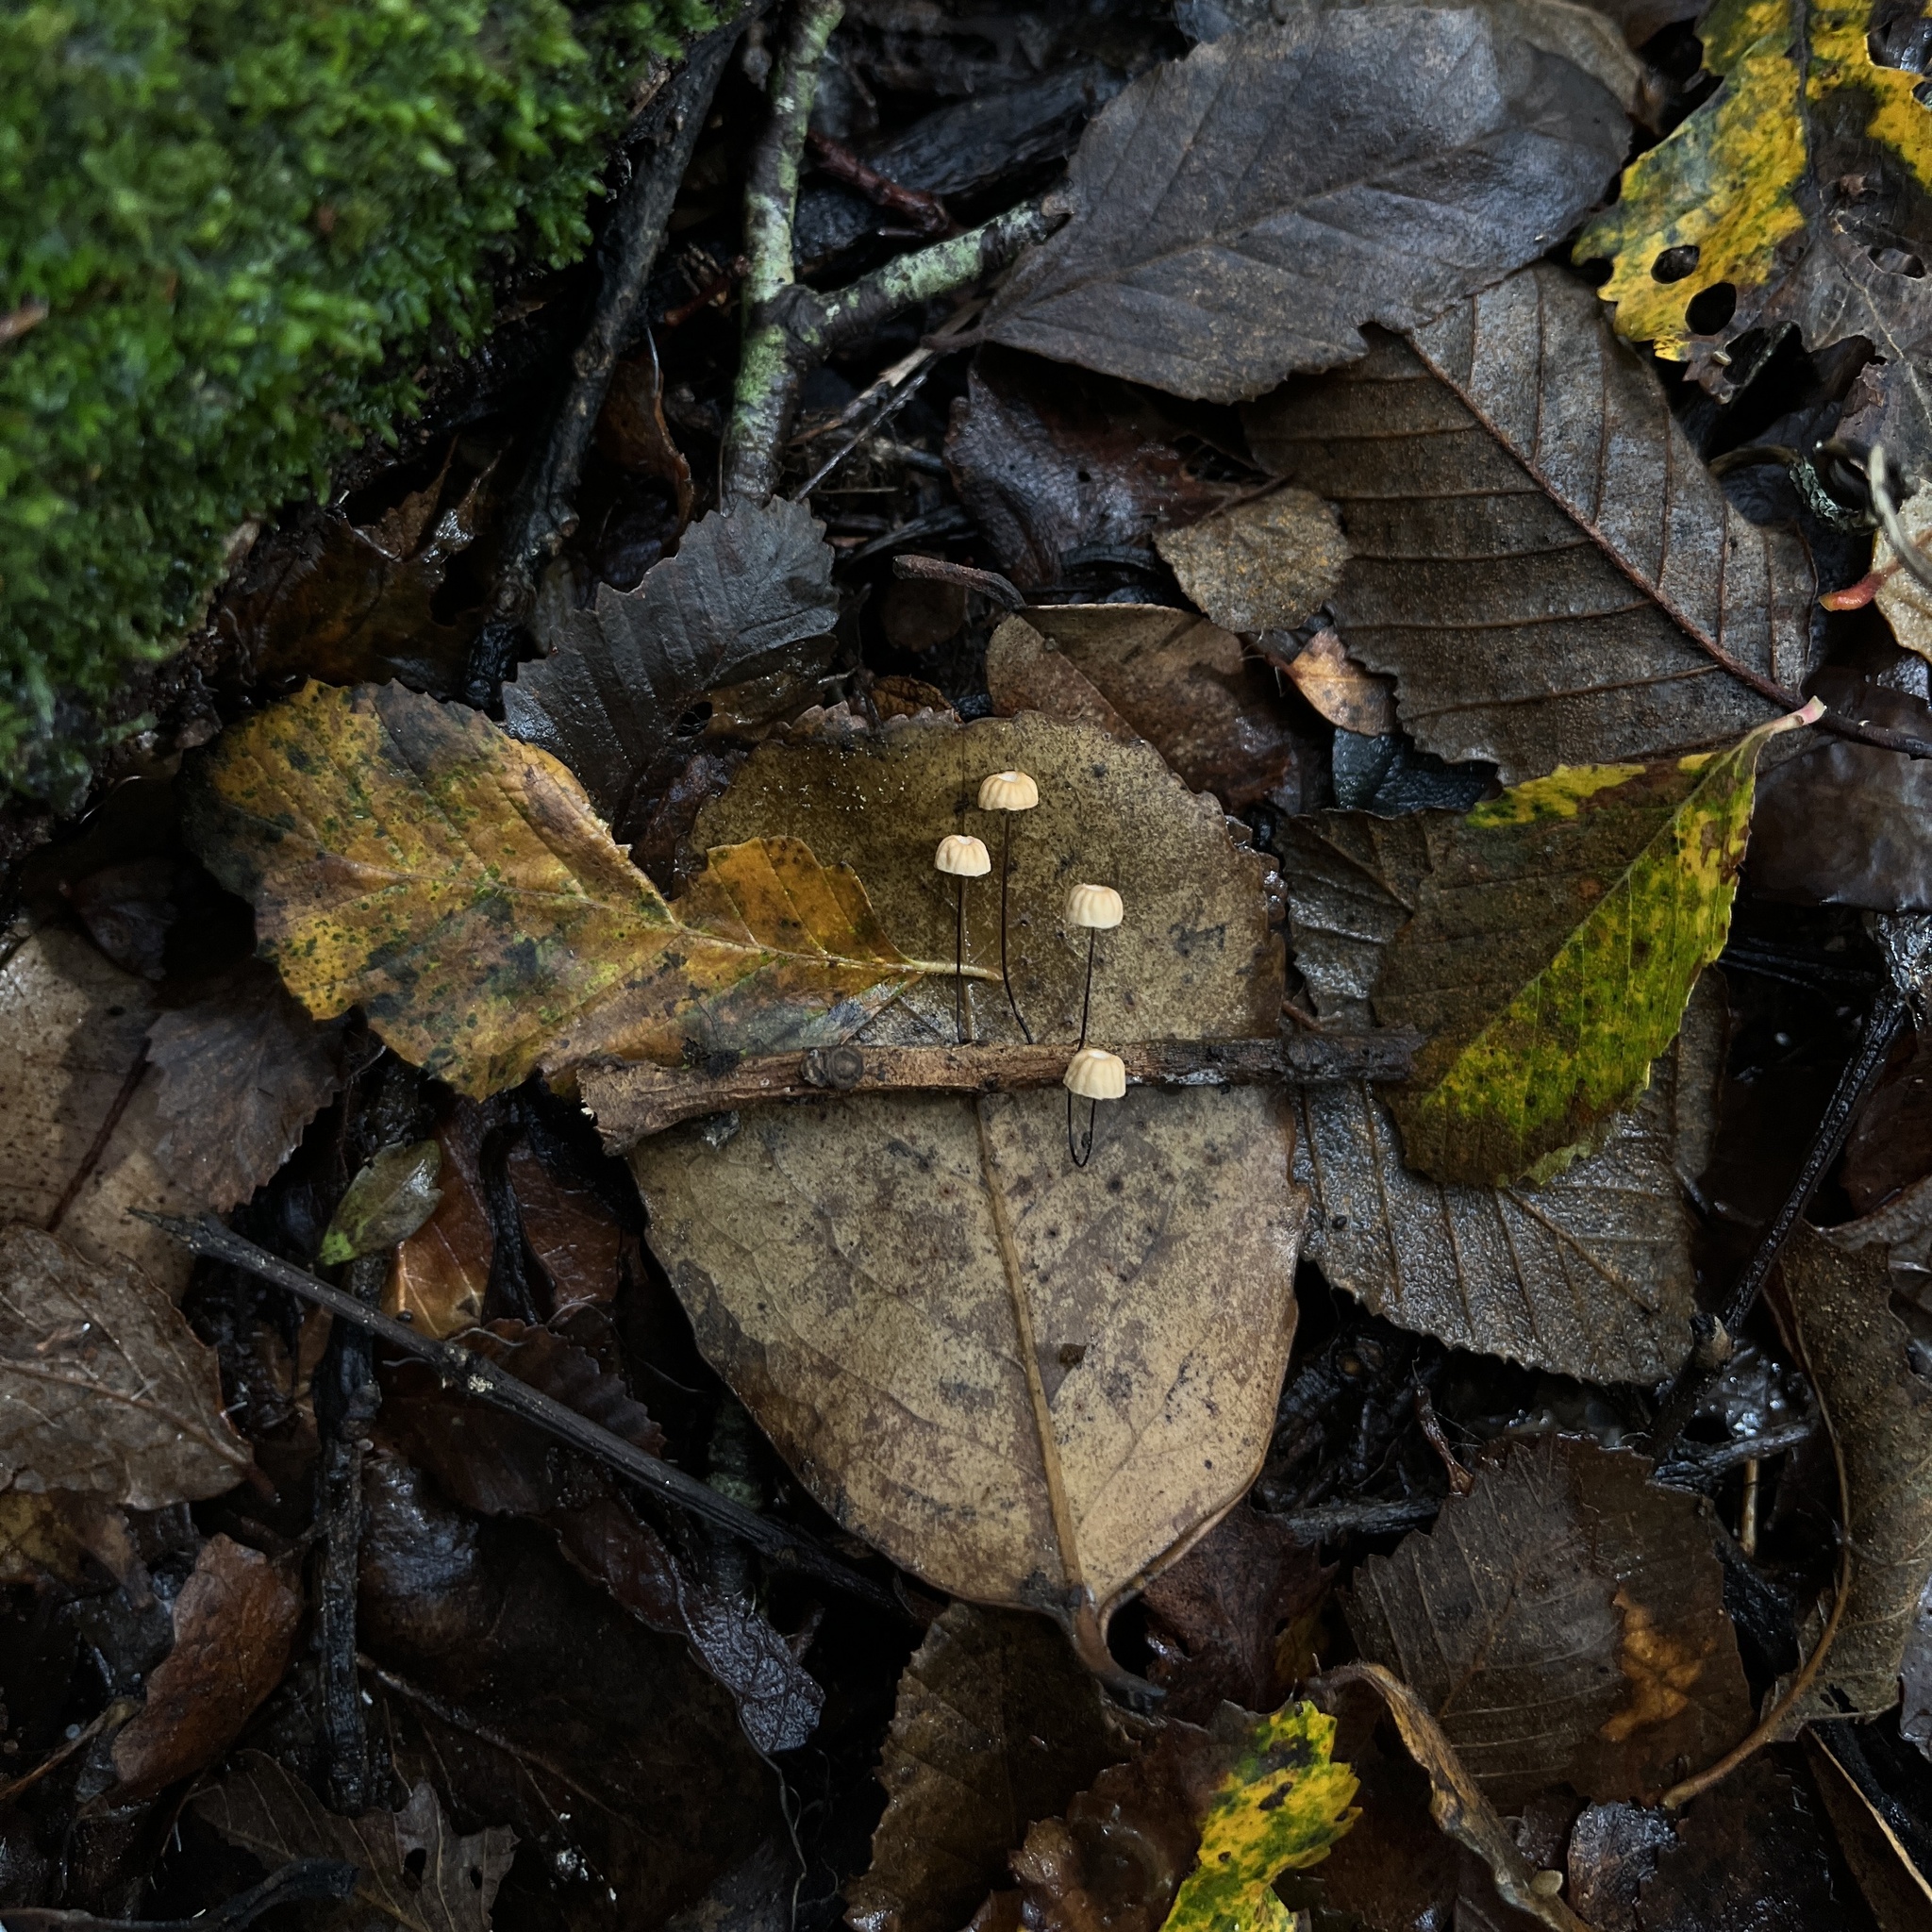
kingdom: Fungi
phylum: Basidiomycota
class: Agaricomycetes
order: Agaricales
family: Marasmiaceae
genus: Marasmius
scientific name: Marasmius bulliardii
